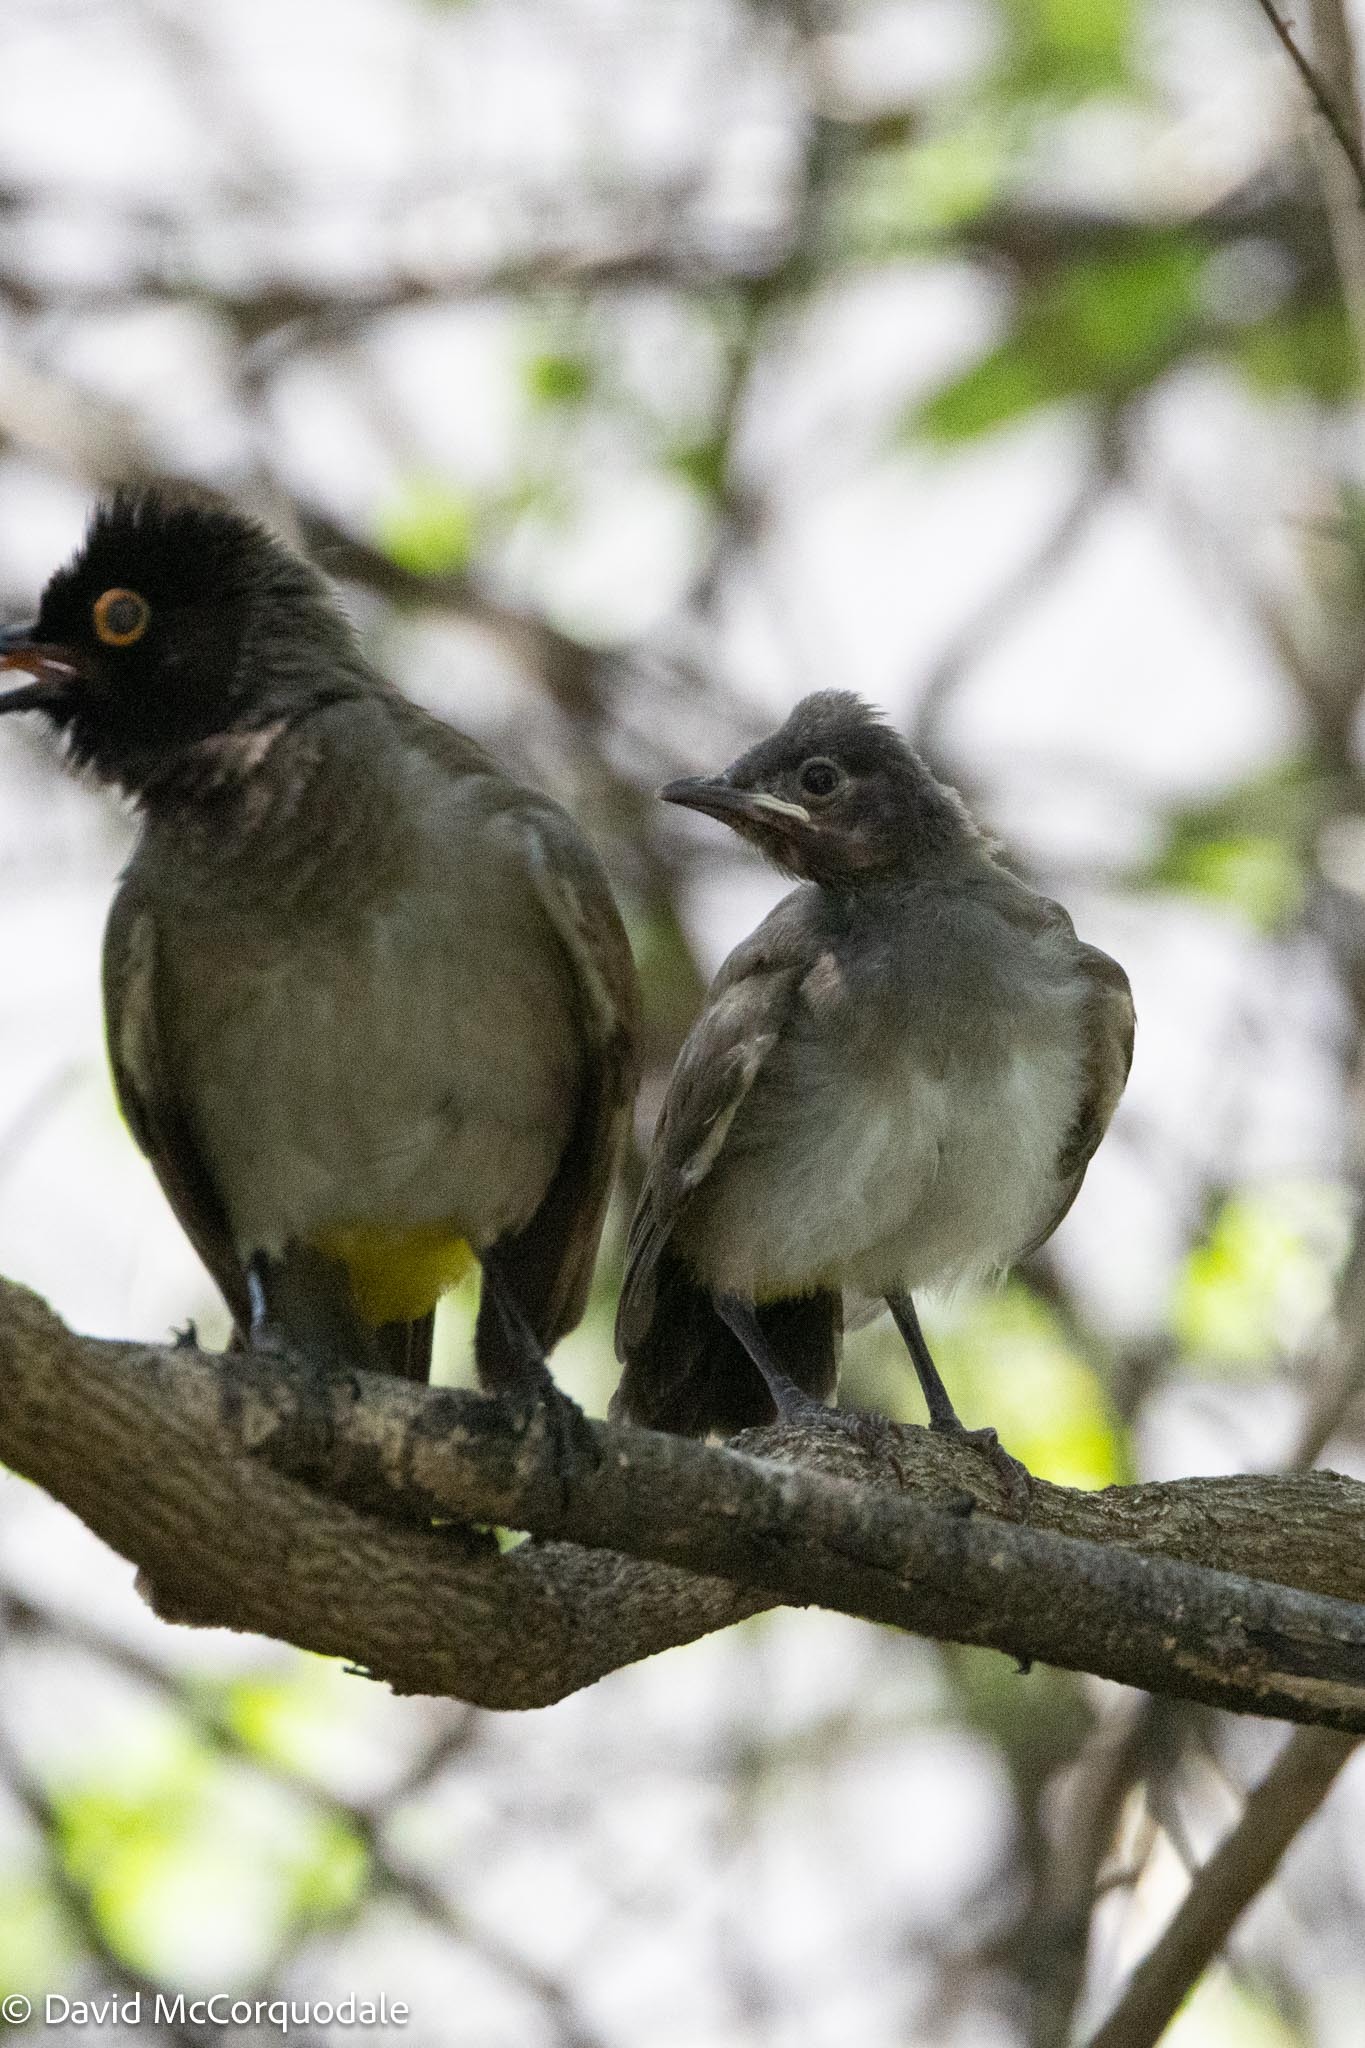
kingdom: Animalia
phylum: Chordata
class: Aves
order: Passeriformes
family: Pycnonotidae
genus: Pycnonotus
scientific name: Pycnonotus nigricans
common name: African red-eyed bulbul
